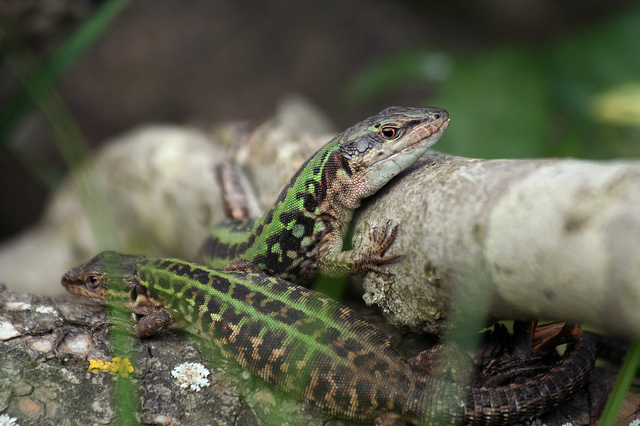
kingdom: Animalia
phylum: Chordata
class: Squamata
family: Lacertidae
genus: Podarcis
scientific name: Podarcis siculus
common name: Italian wall lizard
